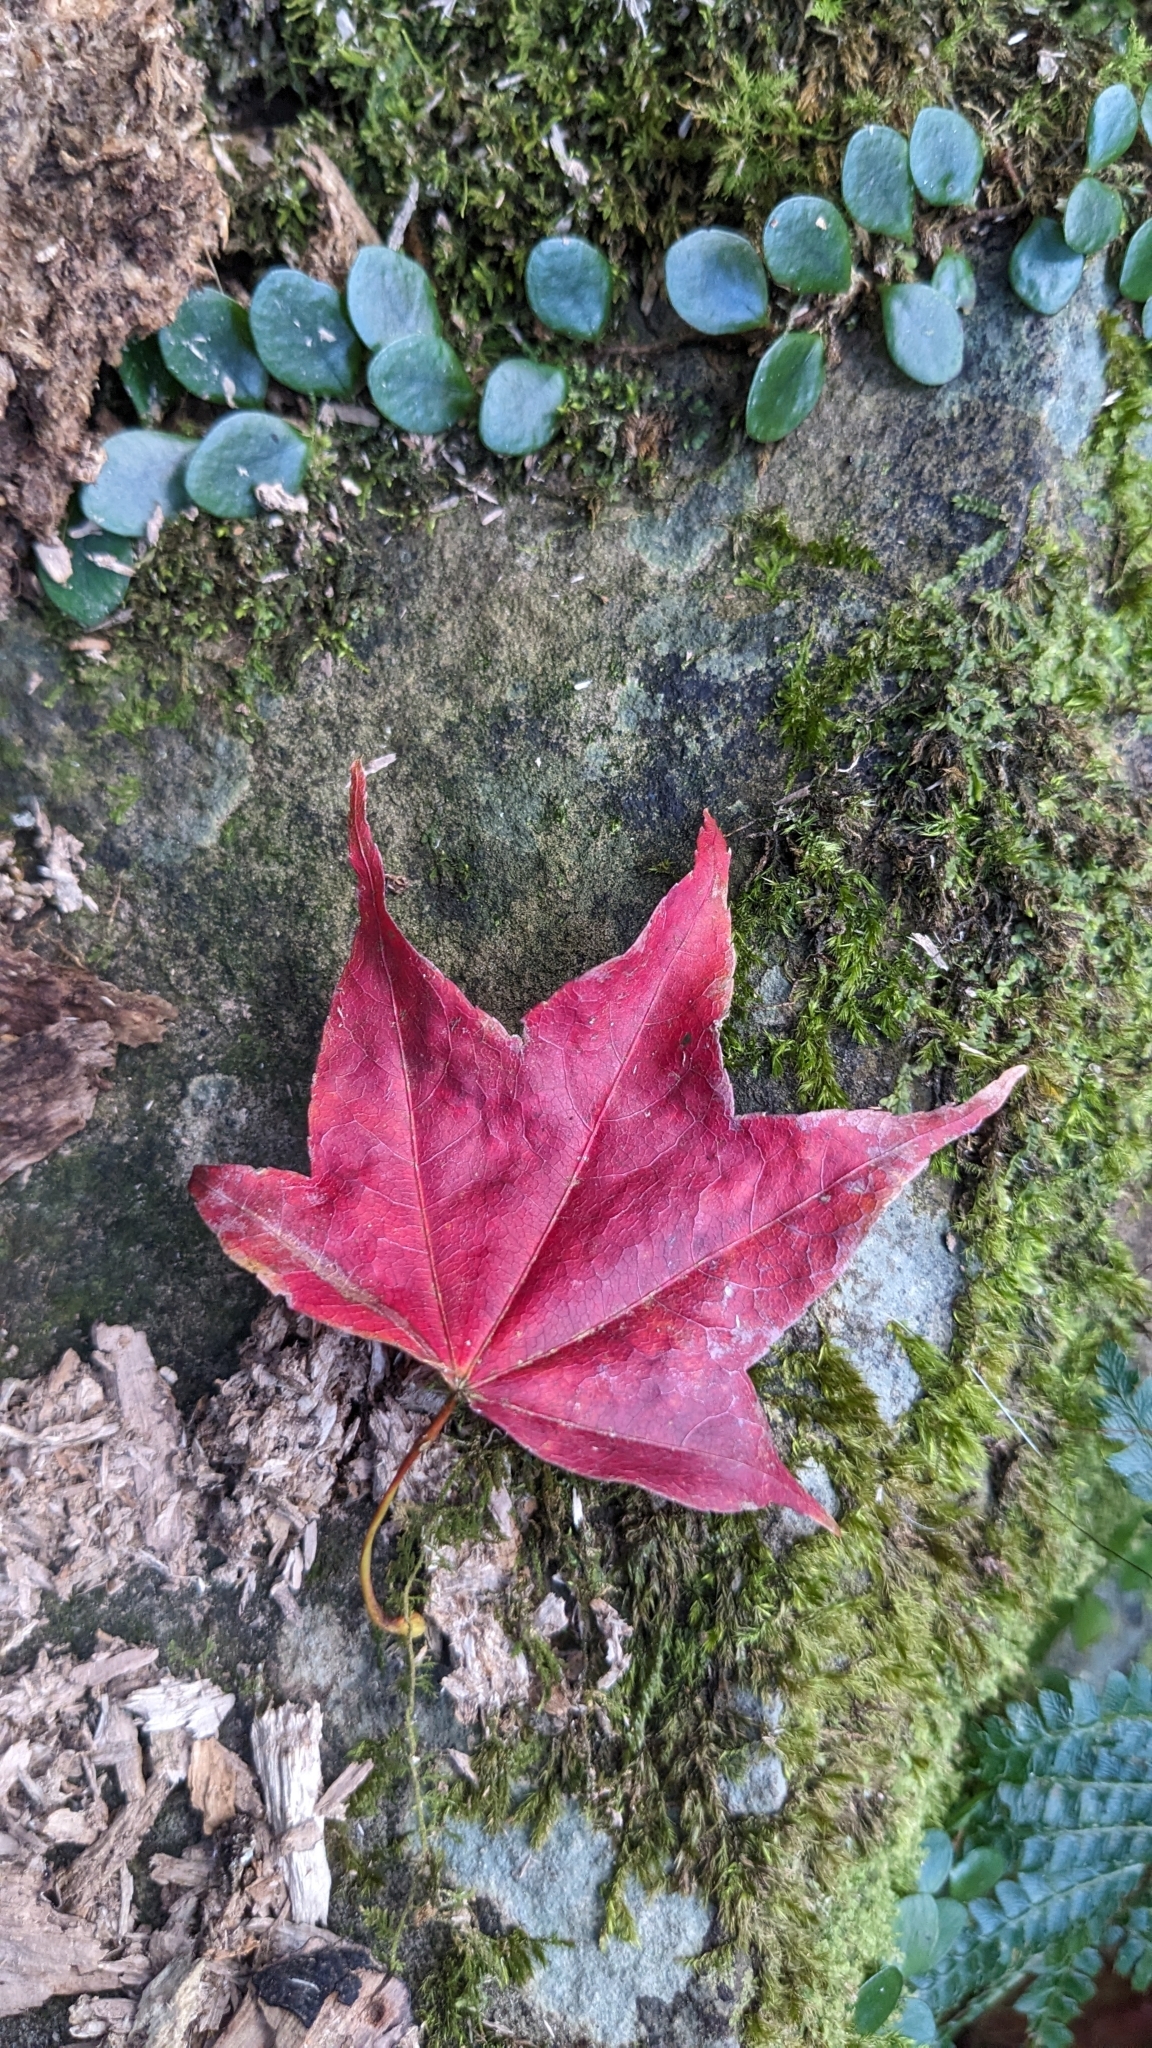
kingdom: Plantae
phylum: Tracheophyta
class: Magnoliopsida
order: Sapindales
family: Sapindaceae
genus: Acer
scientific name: Acer serrulatum
